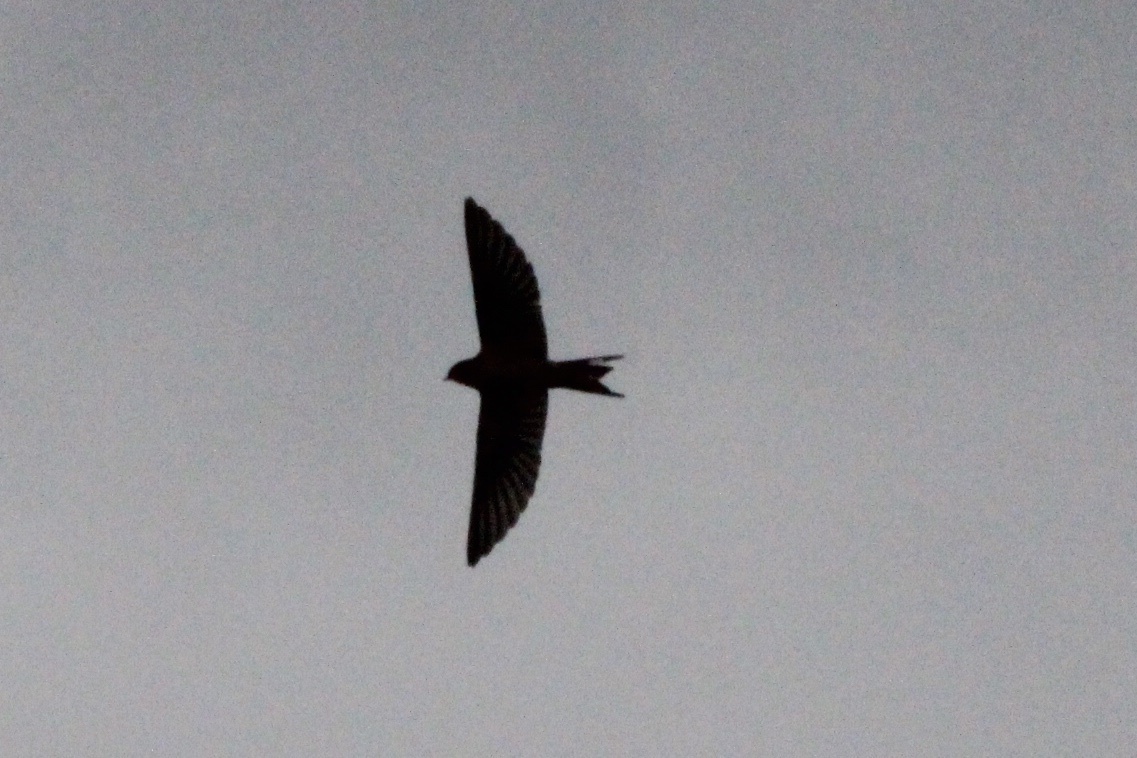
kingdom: Animalia
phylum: Chordata
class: Aves
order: Passeriformes
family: Hirundinidae
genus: Hirundo
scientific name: Hirundo rustica
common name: Barn swallow
